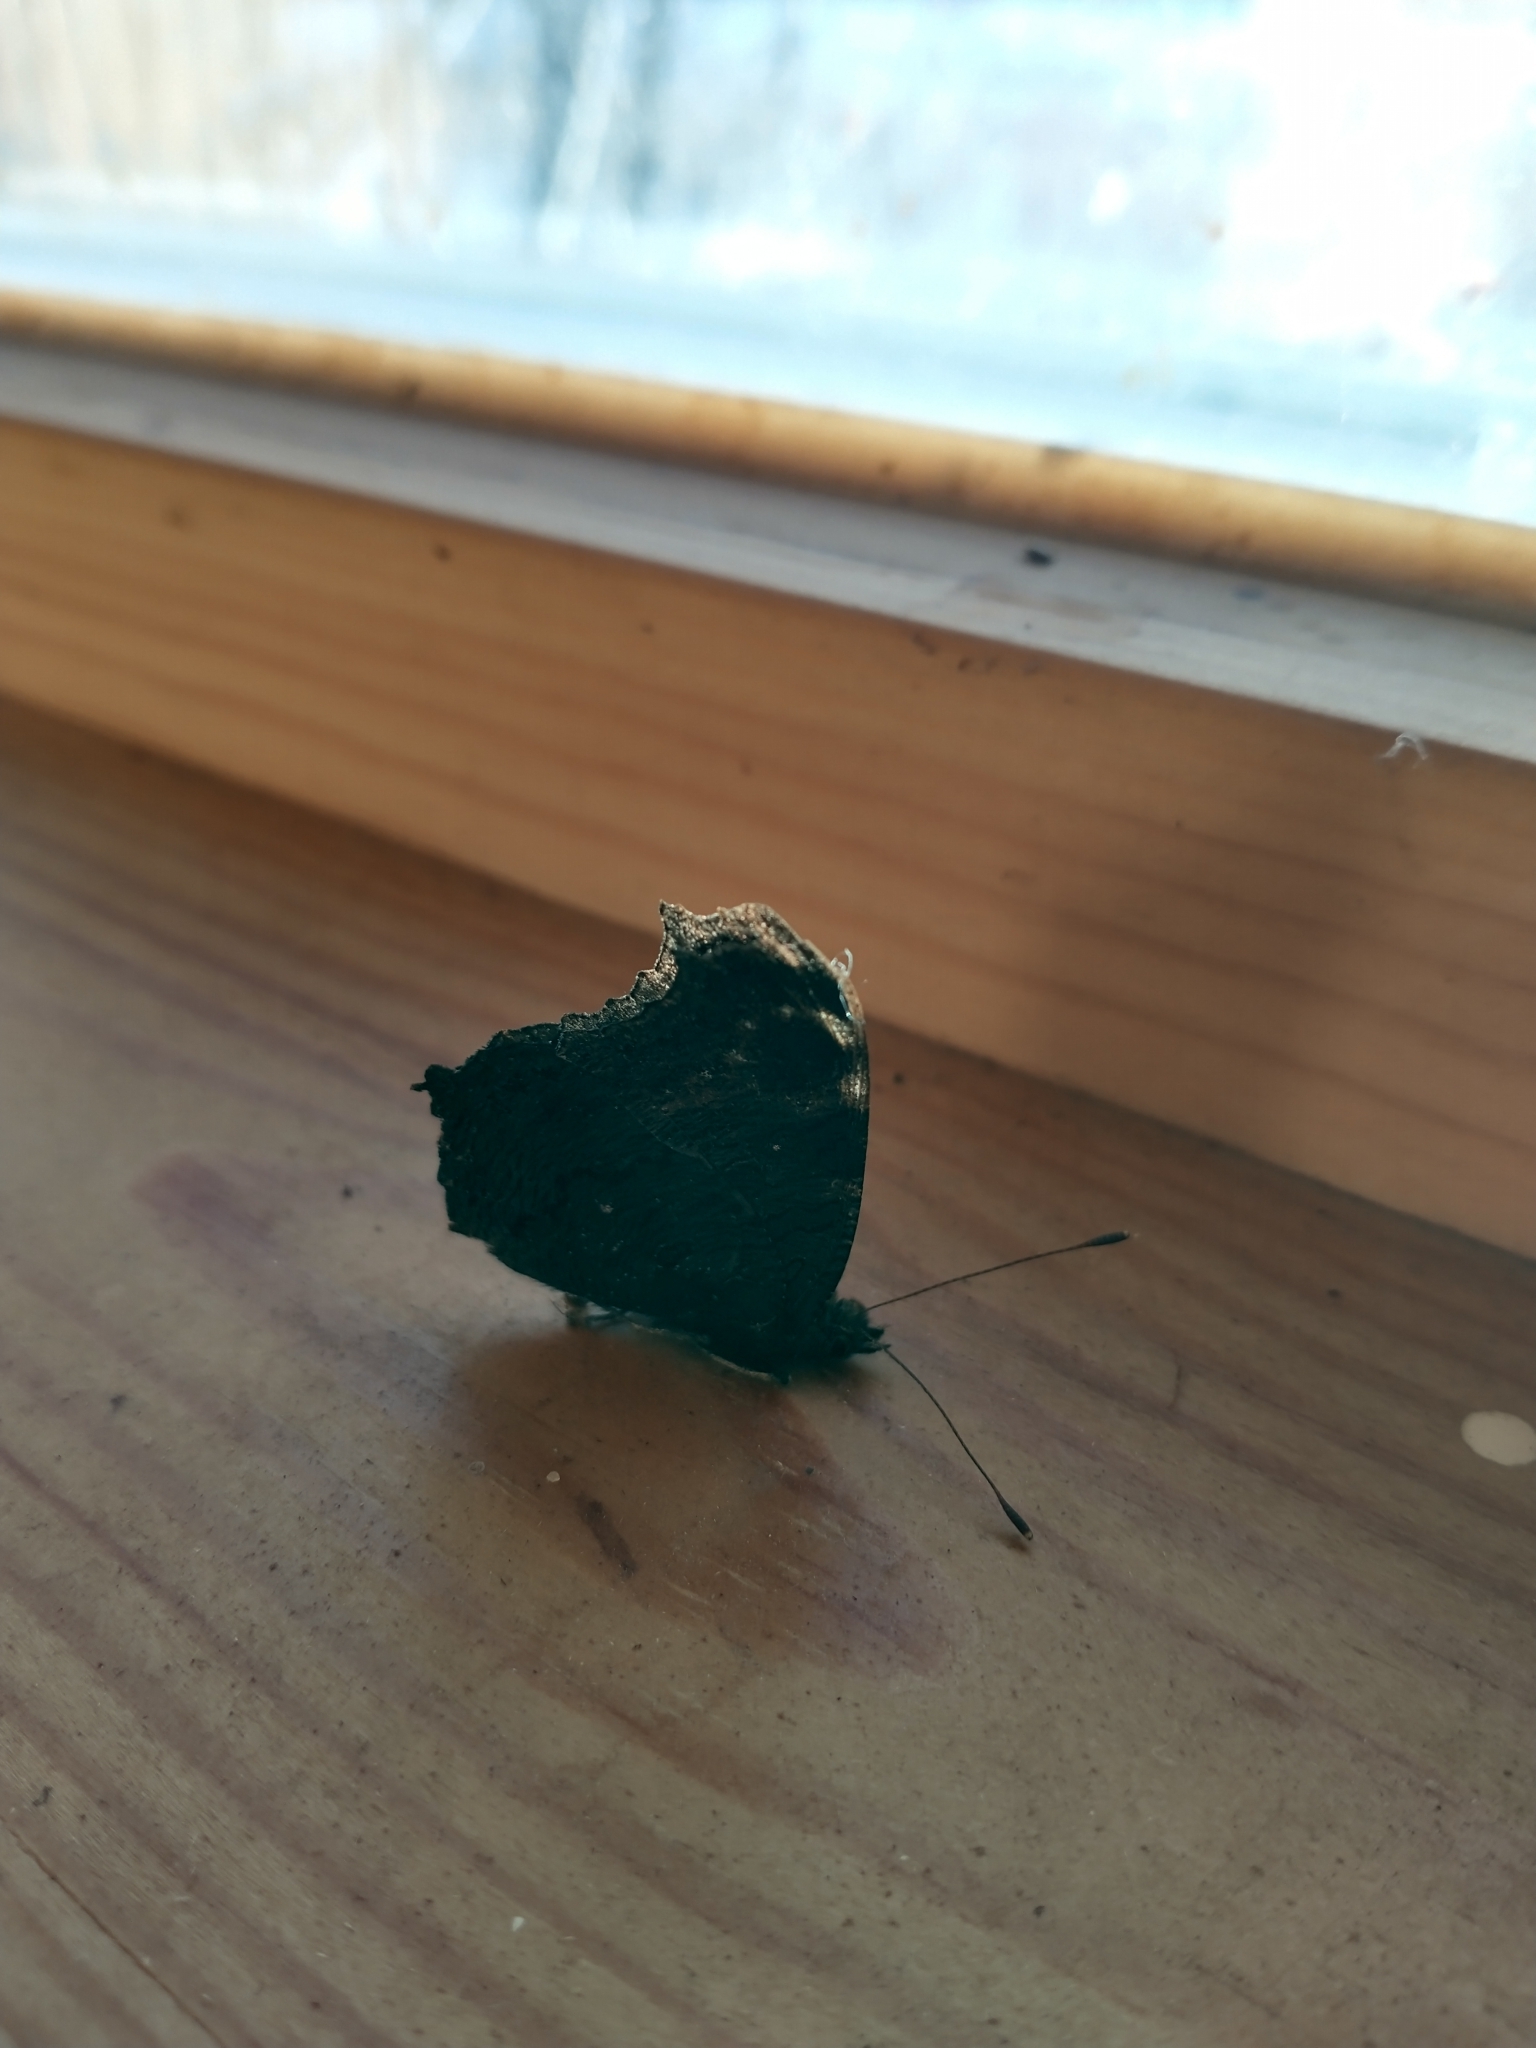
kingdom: Animalia
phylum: Arthropoda
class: Insecta
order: Lepidoptera
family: Nymphalidae
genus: Aglais
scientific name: Aglais io
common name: Peacock
